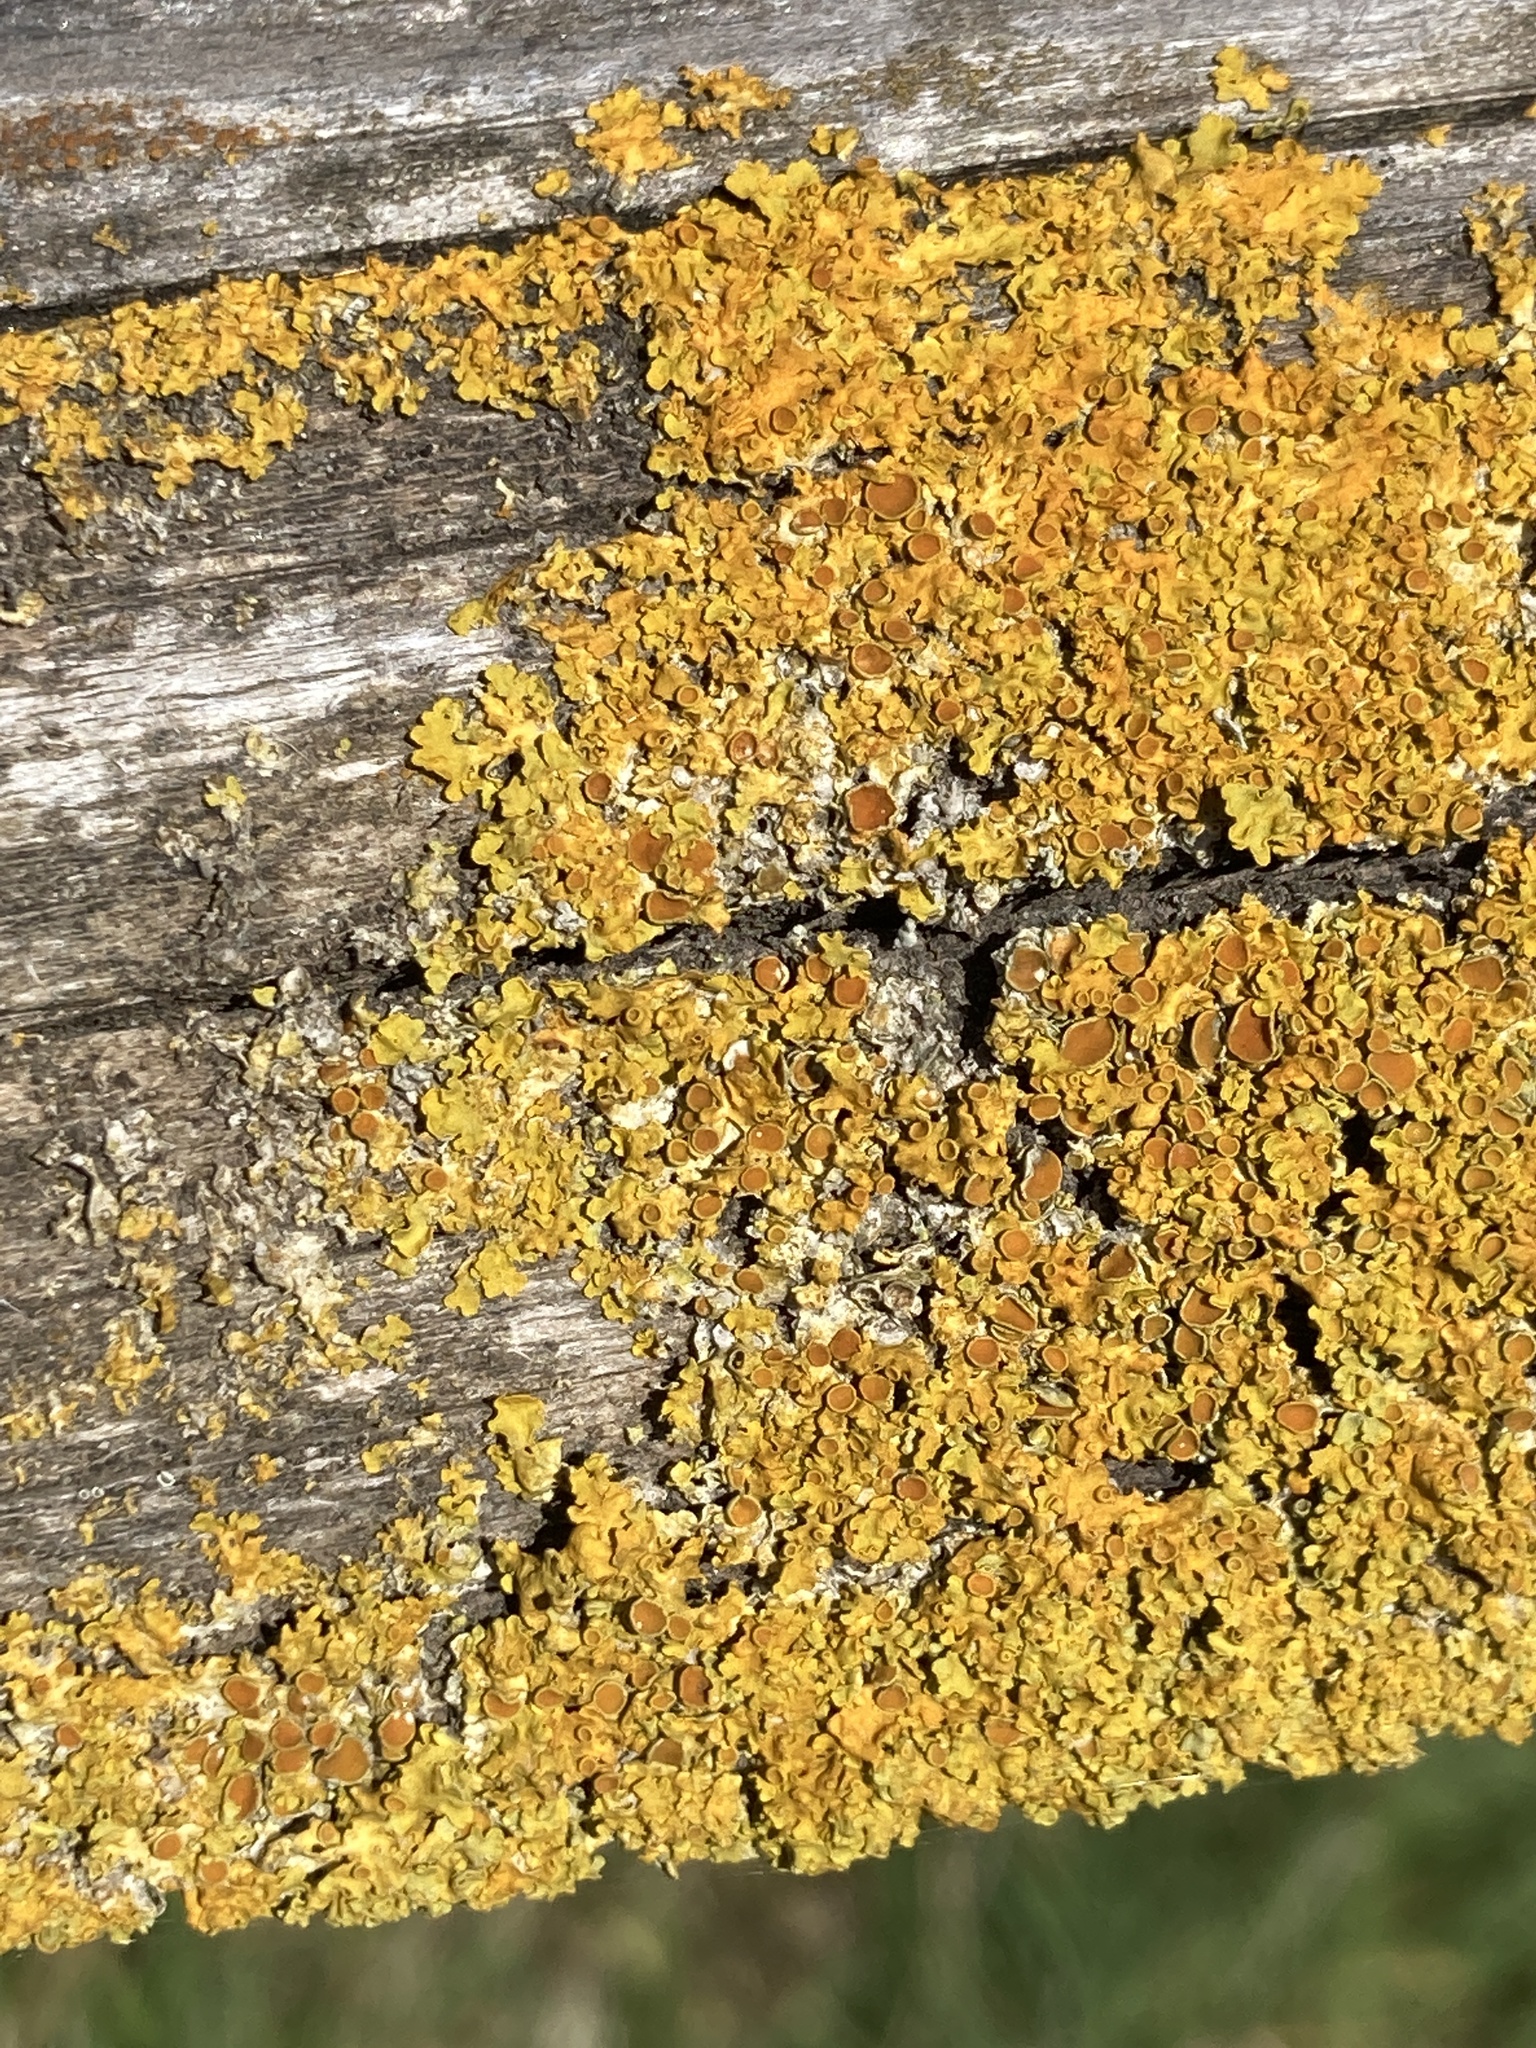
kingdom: Fungi
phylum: Ascomycota
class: Lecanoromycetes
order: Teloschistales
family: Teloschistaceae
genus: Xanthoria
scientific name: Xanthoria parietina
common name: Common orange lichen
